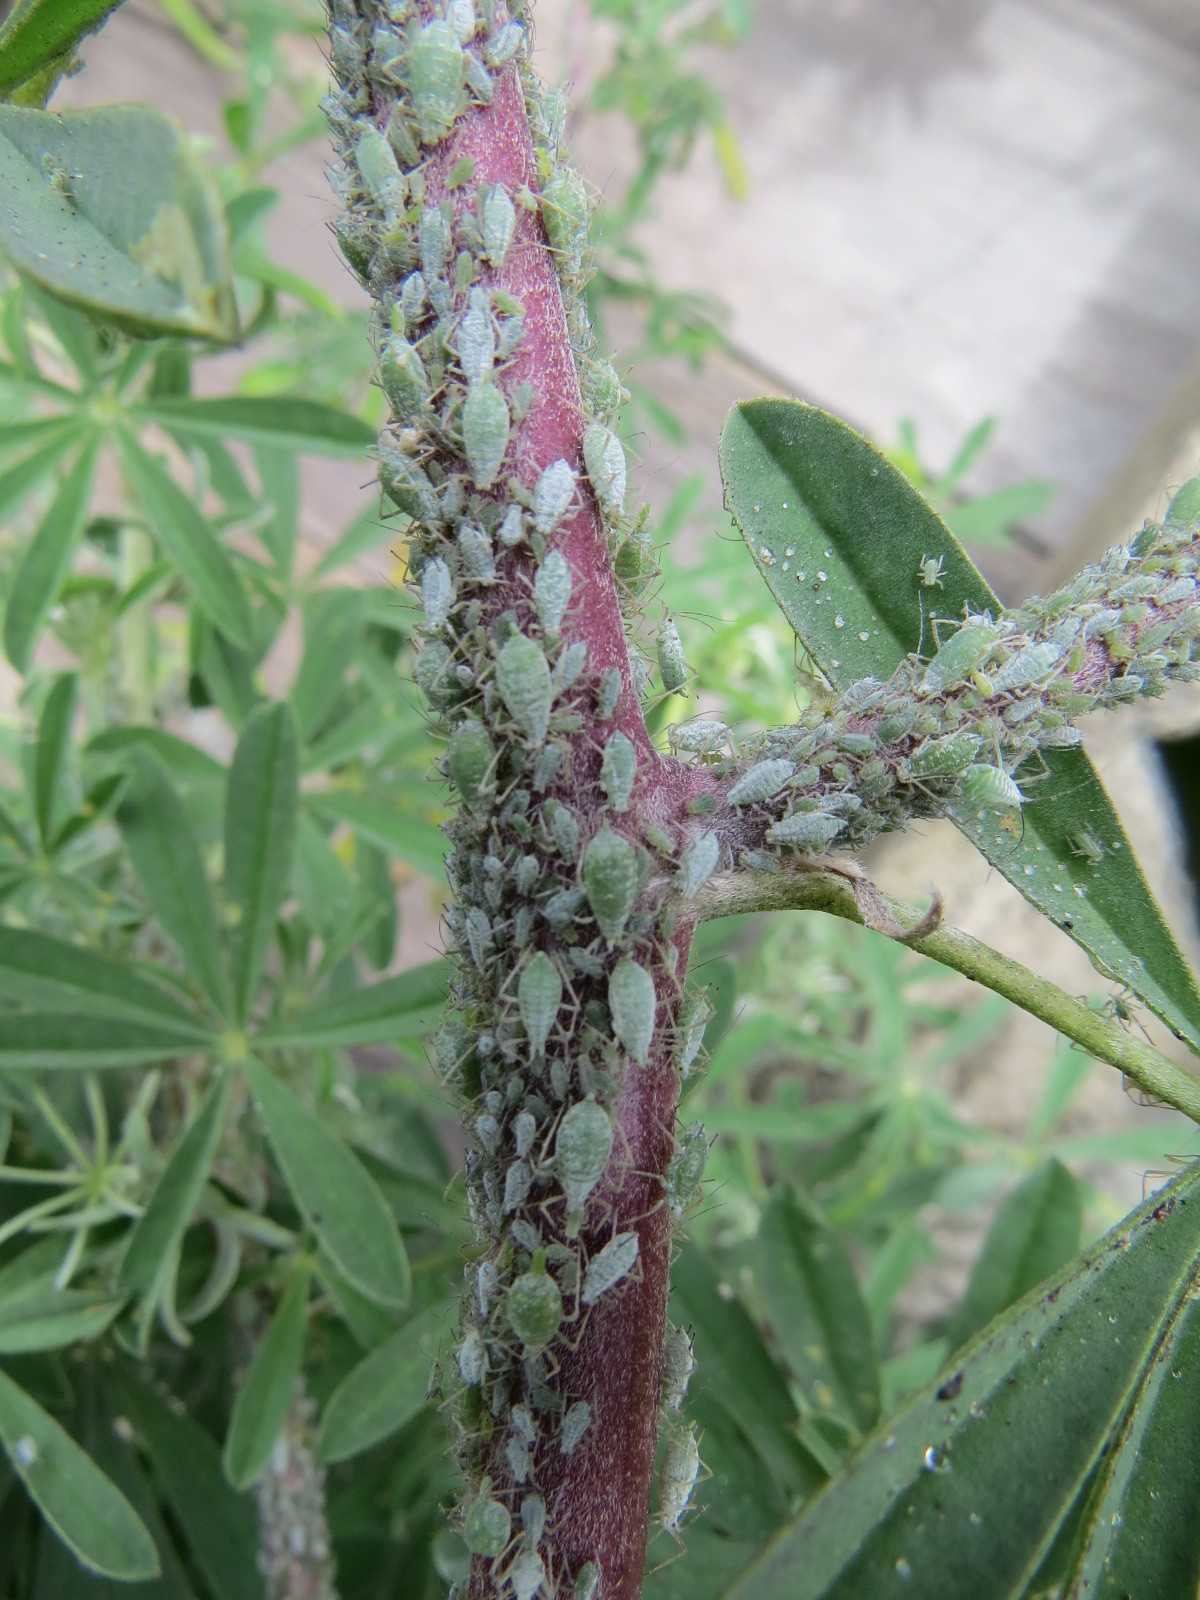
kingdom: Animalia
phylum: Arthropoda
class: Insecta
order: Hemiptera
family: Aphididae
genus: Macrosiphum
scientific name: Macrosiphum albifrons
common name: Lupine aphid
